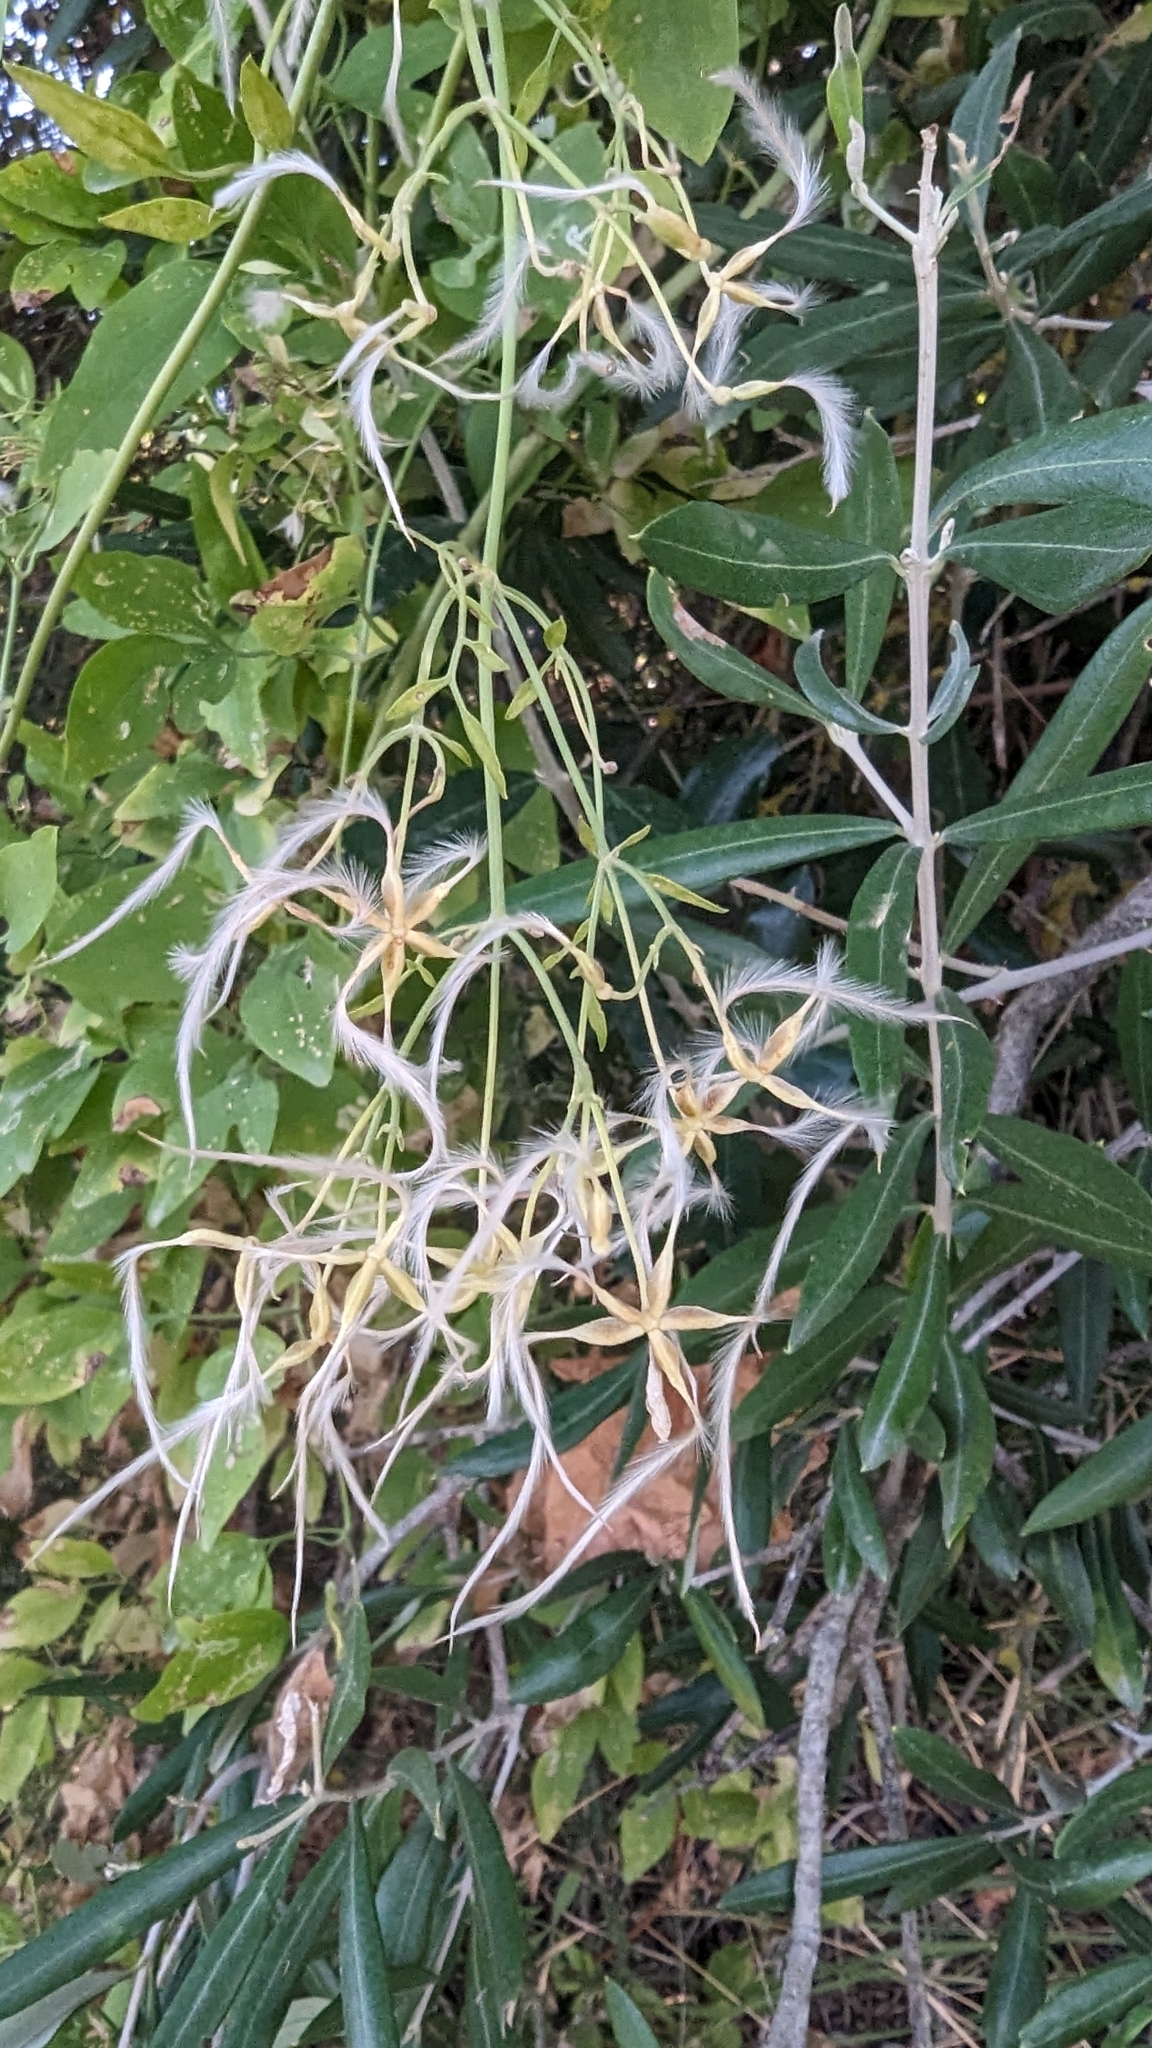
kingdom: Plantae
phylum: Tracheophyta
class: Magnoliopsida
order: Ranunculales
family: Ranunculaceae
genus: Clematis
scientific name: Clematis flammula
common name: Virgin's-bower
